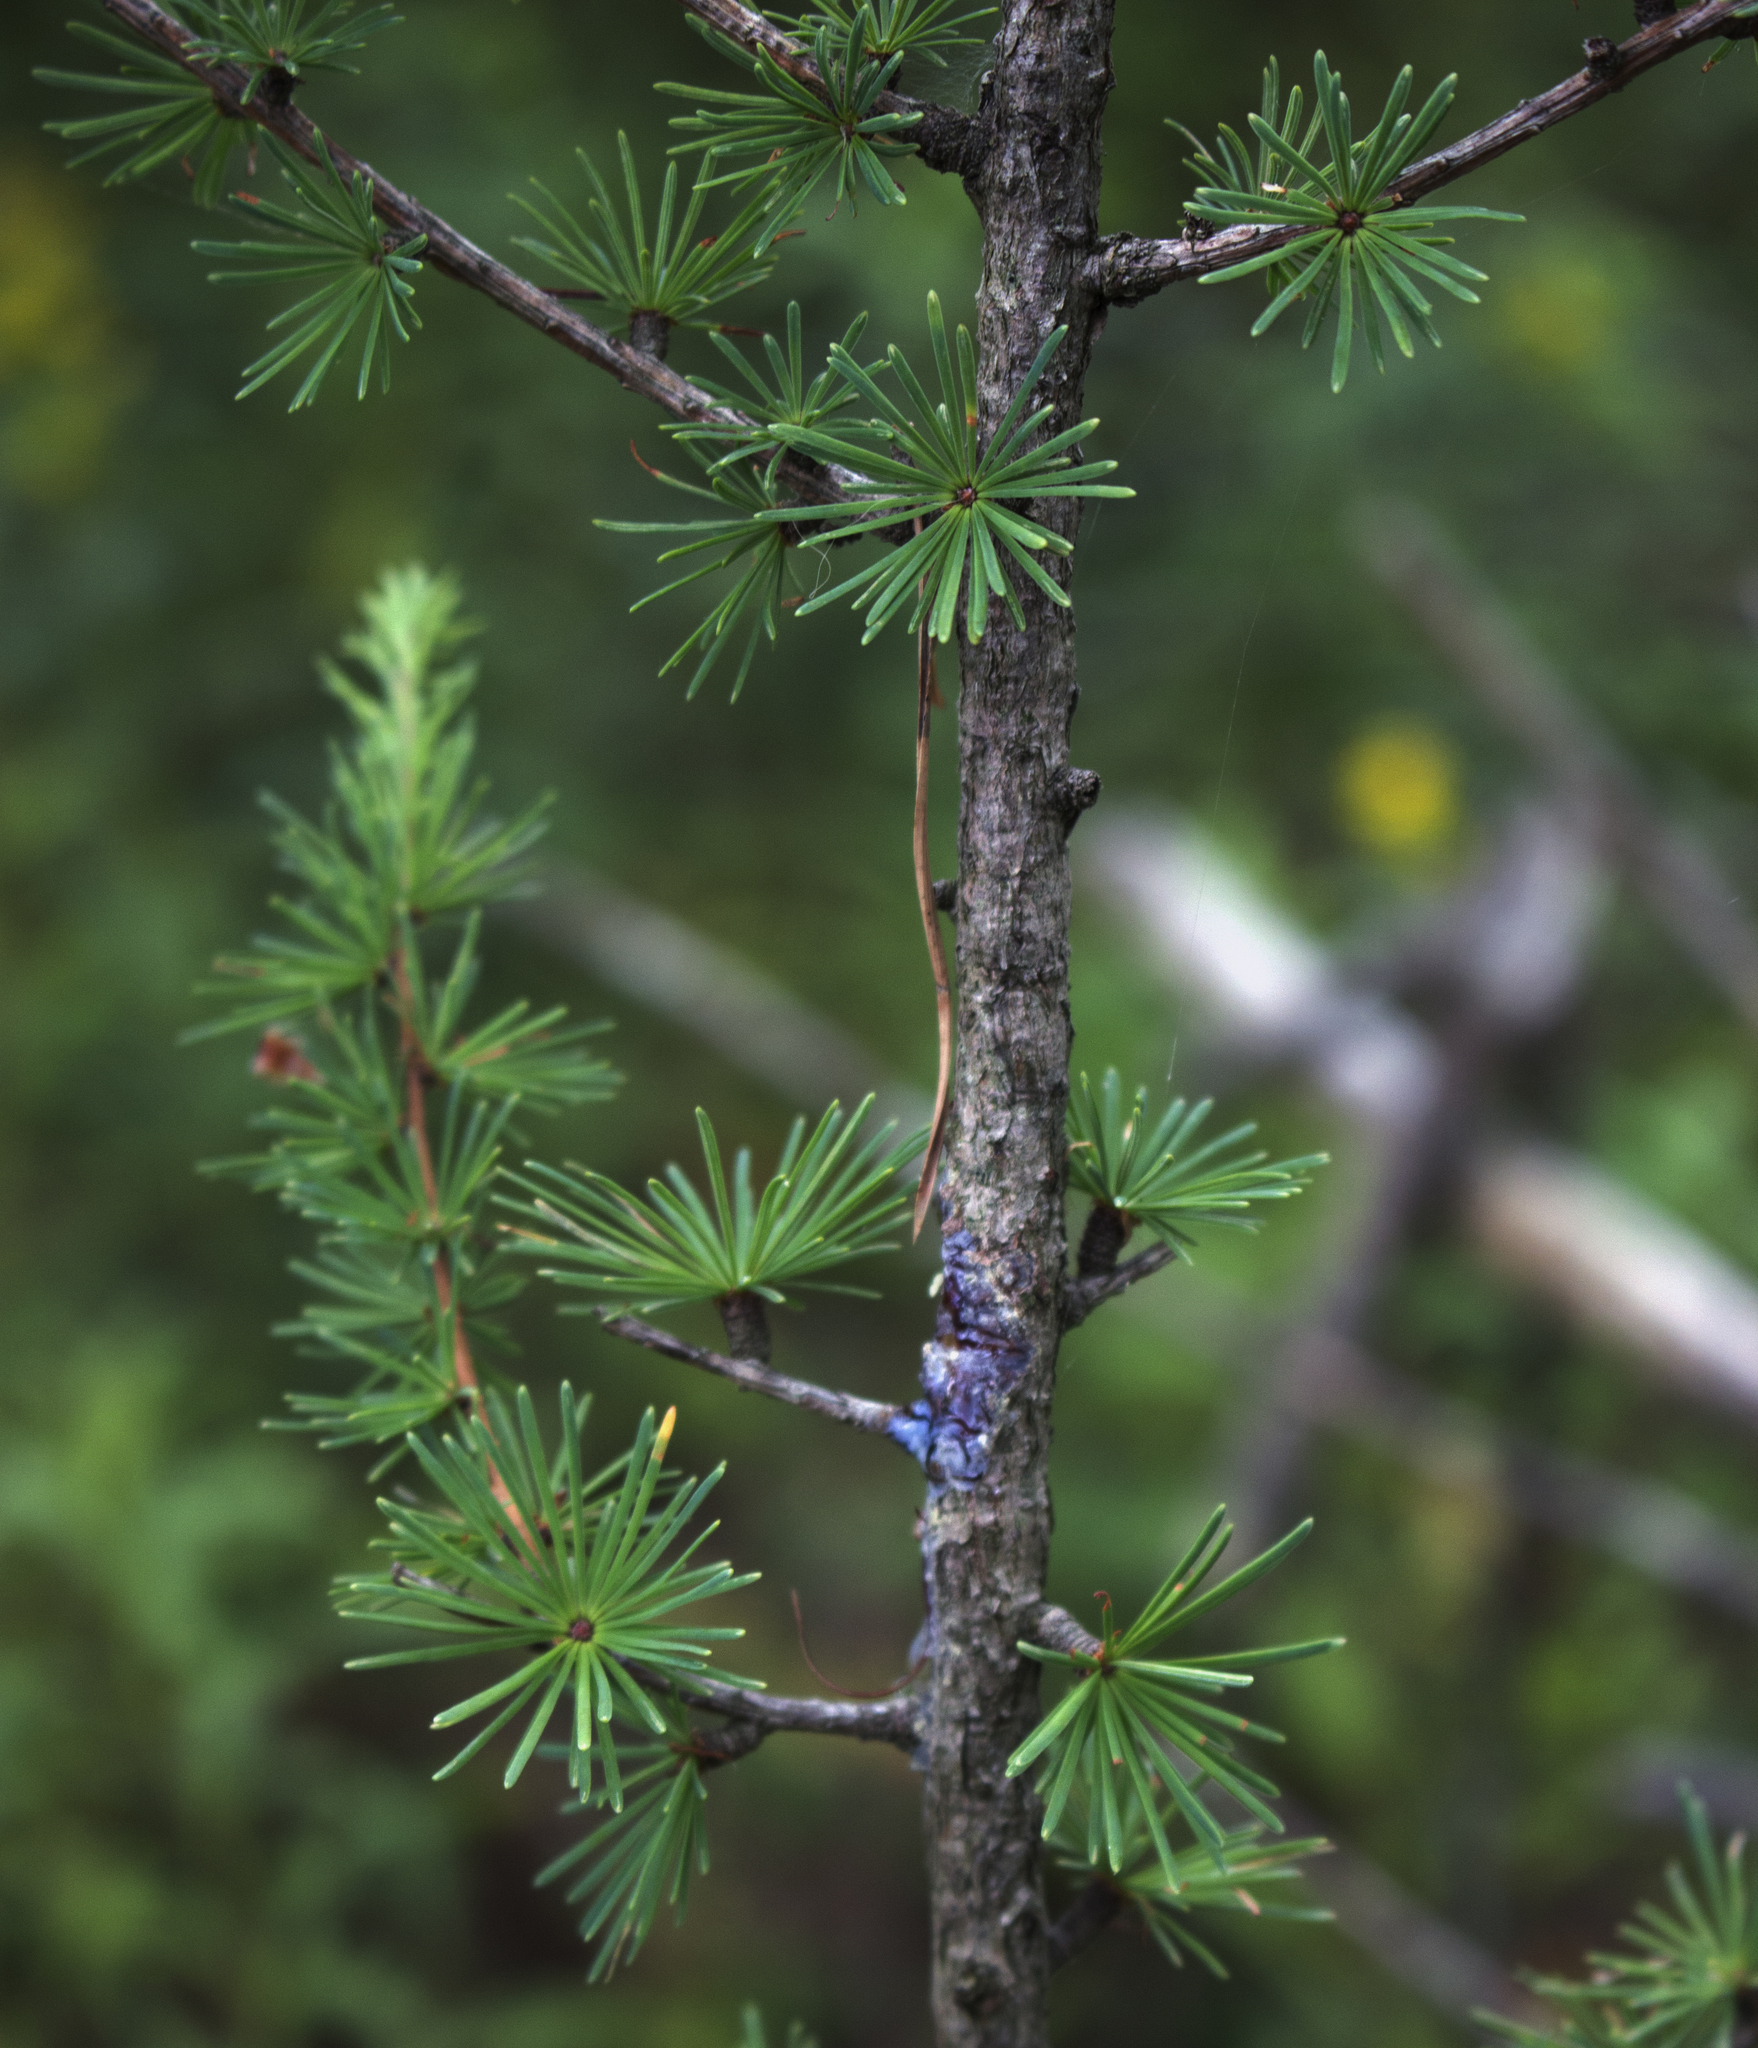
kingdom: Plantae
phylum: Tracheophyta
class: Pinopsida
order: Pinales
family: Pinaceae
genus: Larix
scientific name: Larix laricina
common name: American larch
